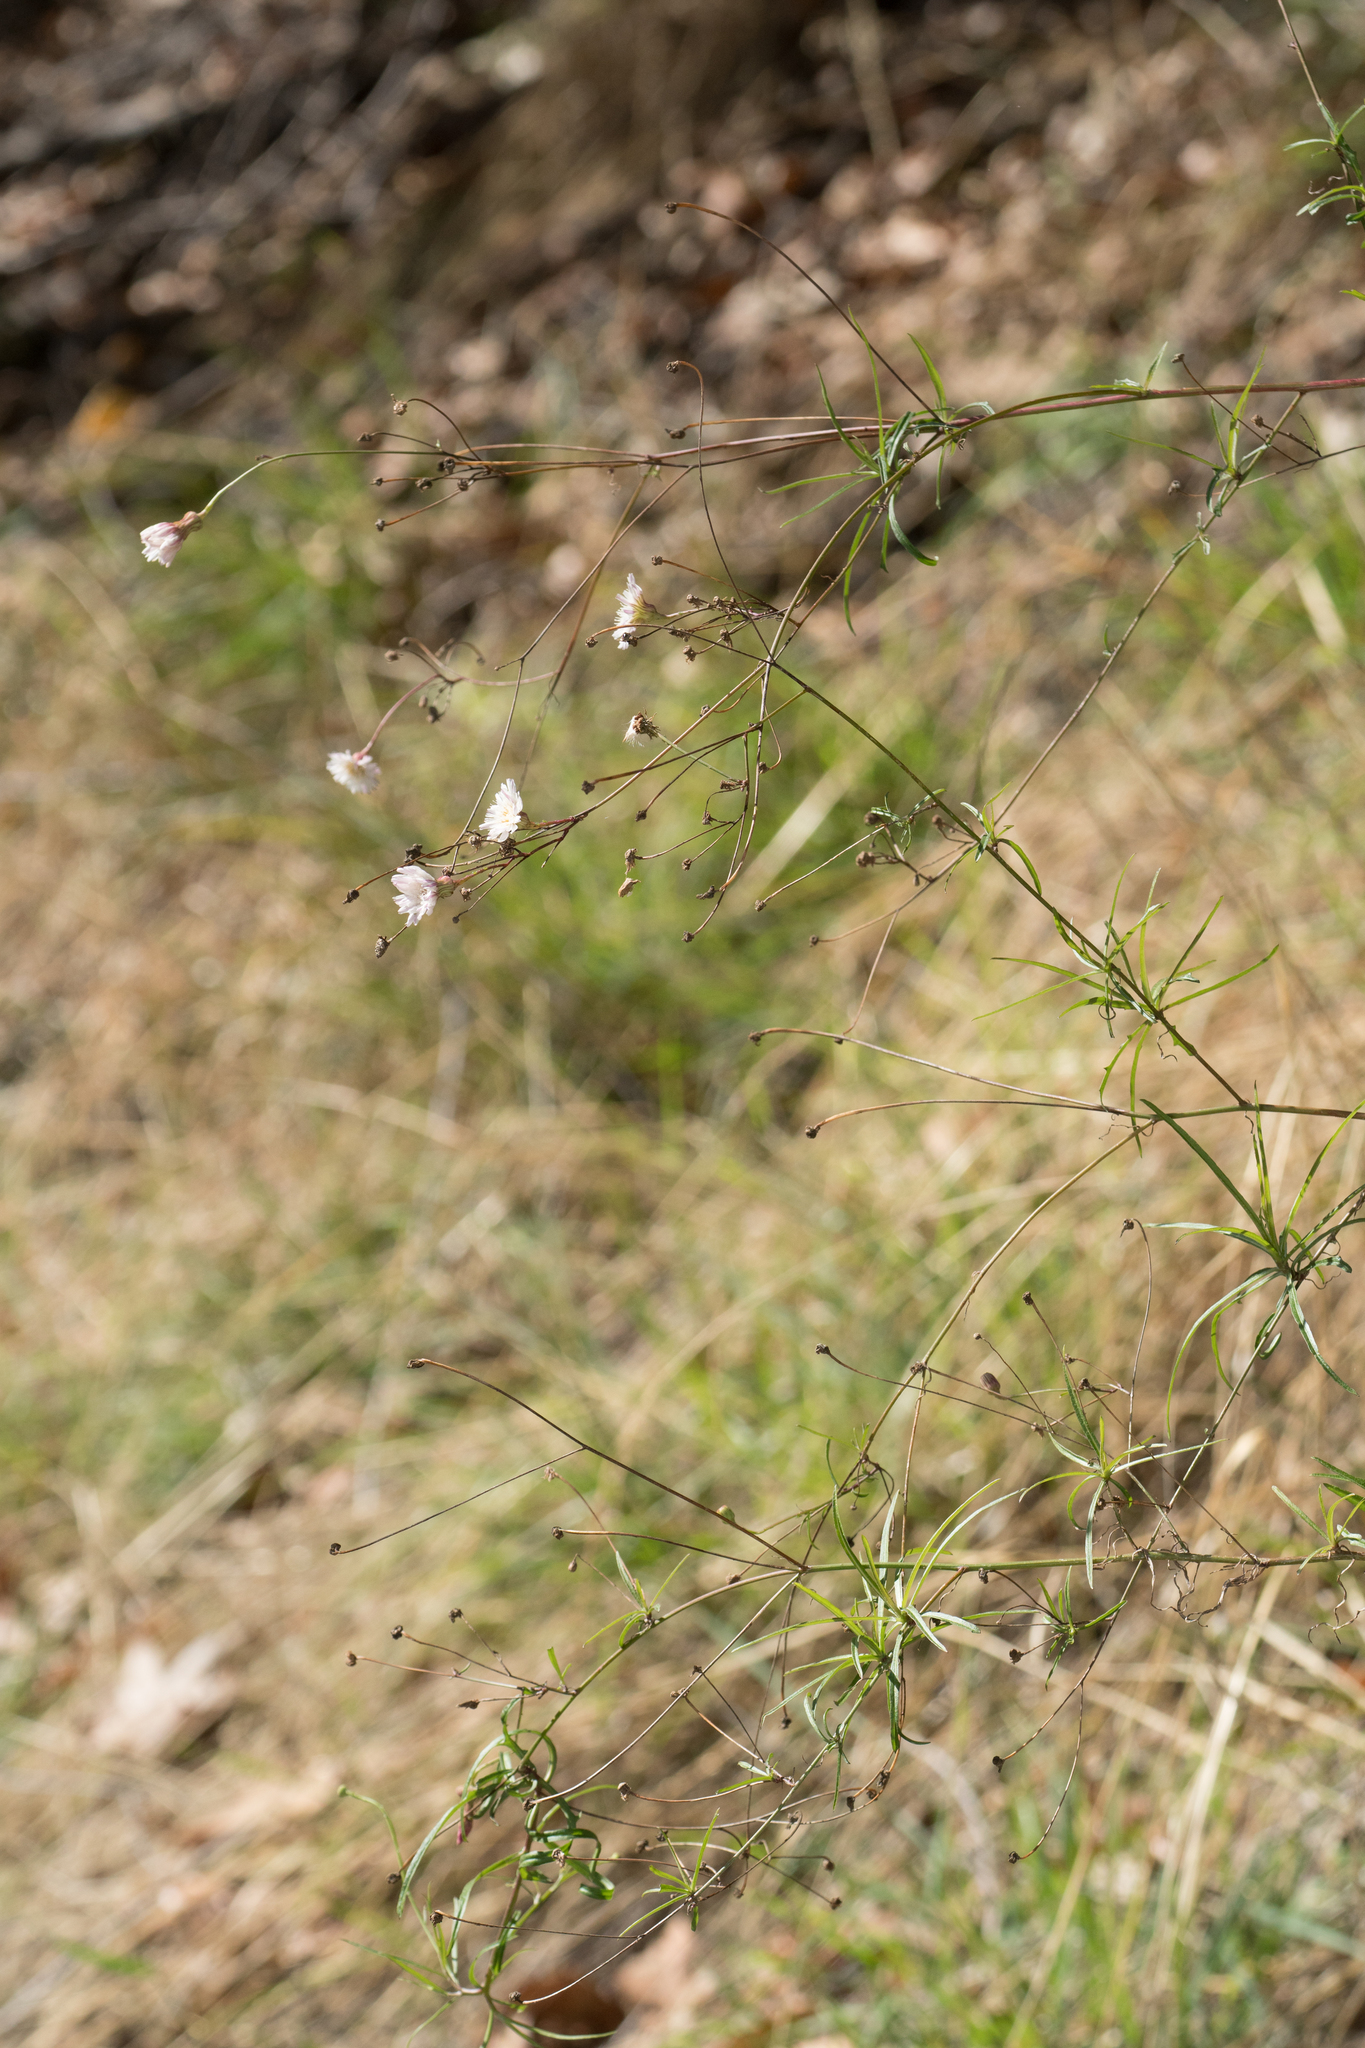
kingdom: Plantae
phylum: Tracheophyta
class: Magnoliopsida
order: Asterales
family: Asteraceae
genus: Malacothrix
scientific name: Malacothrix saxatilis
